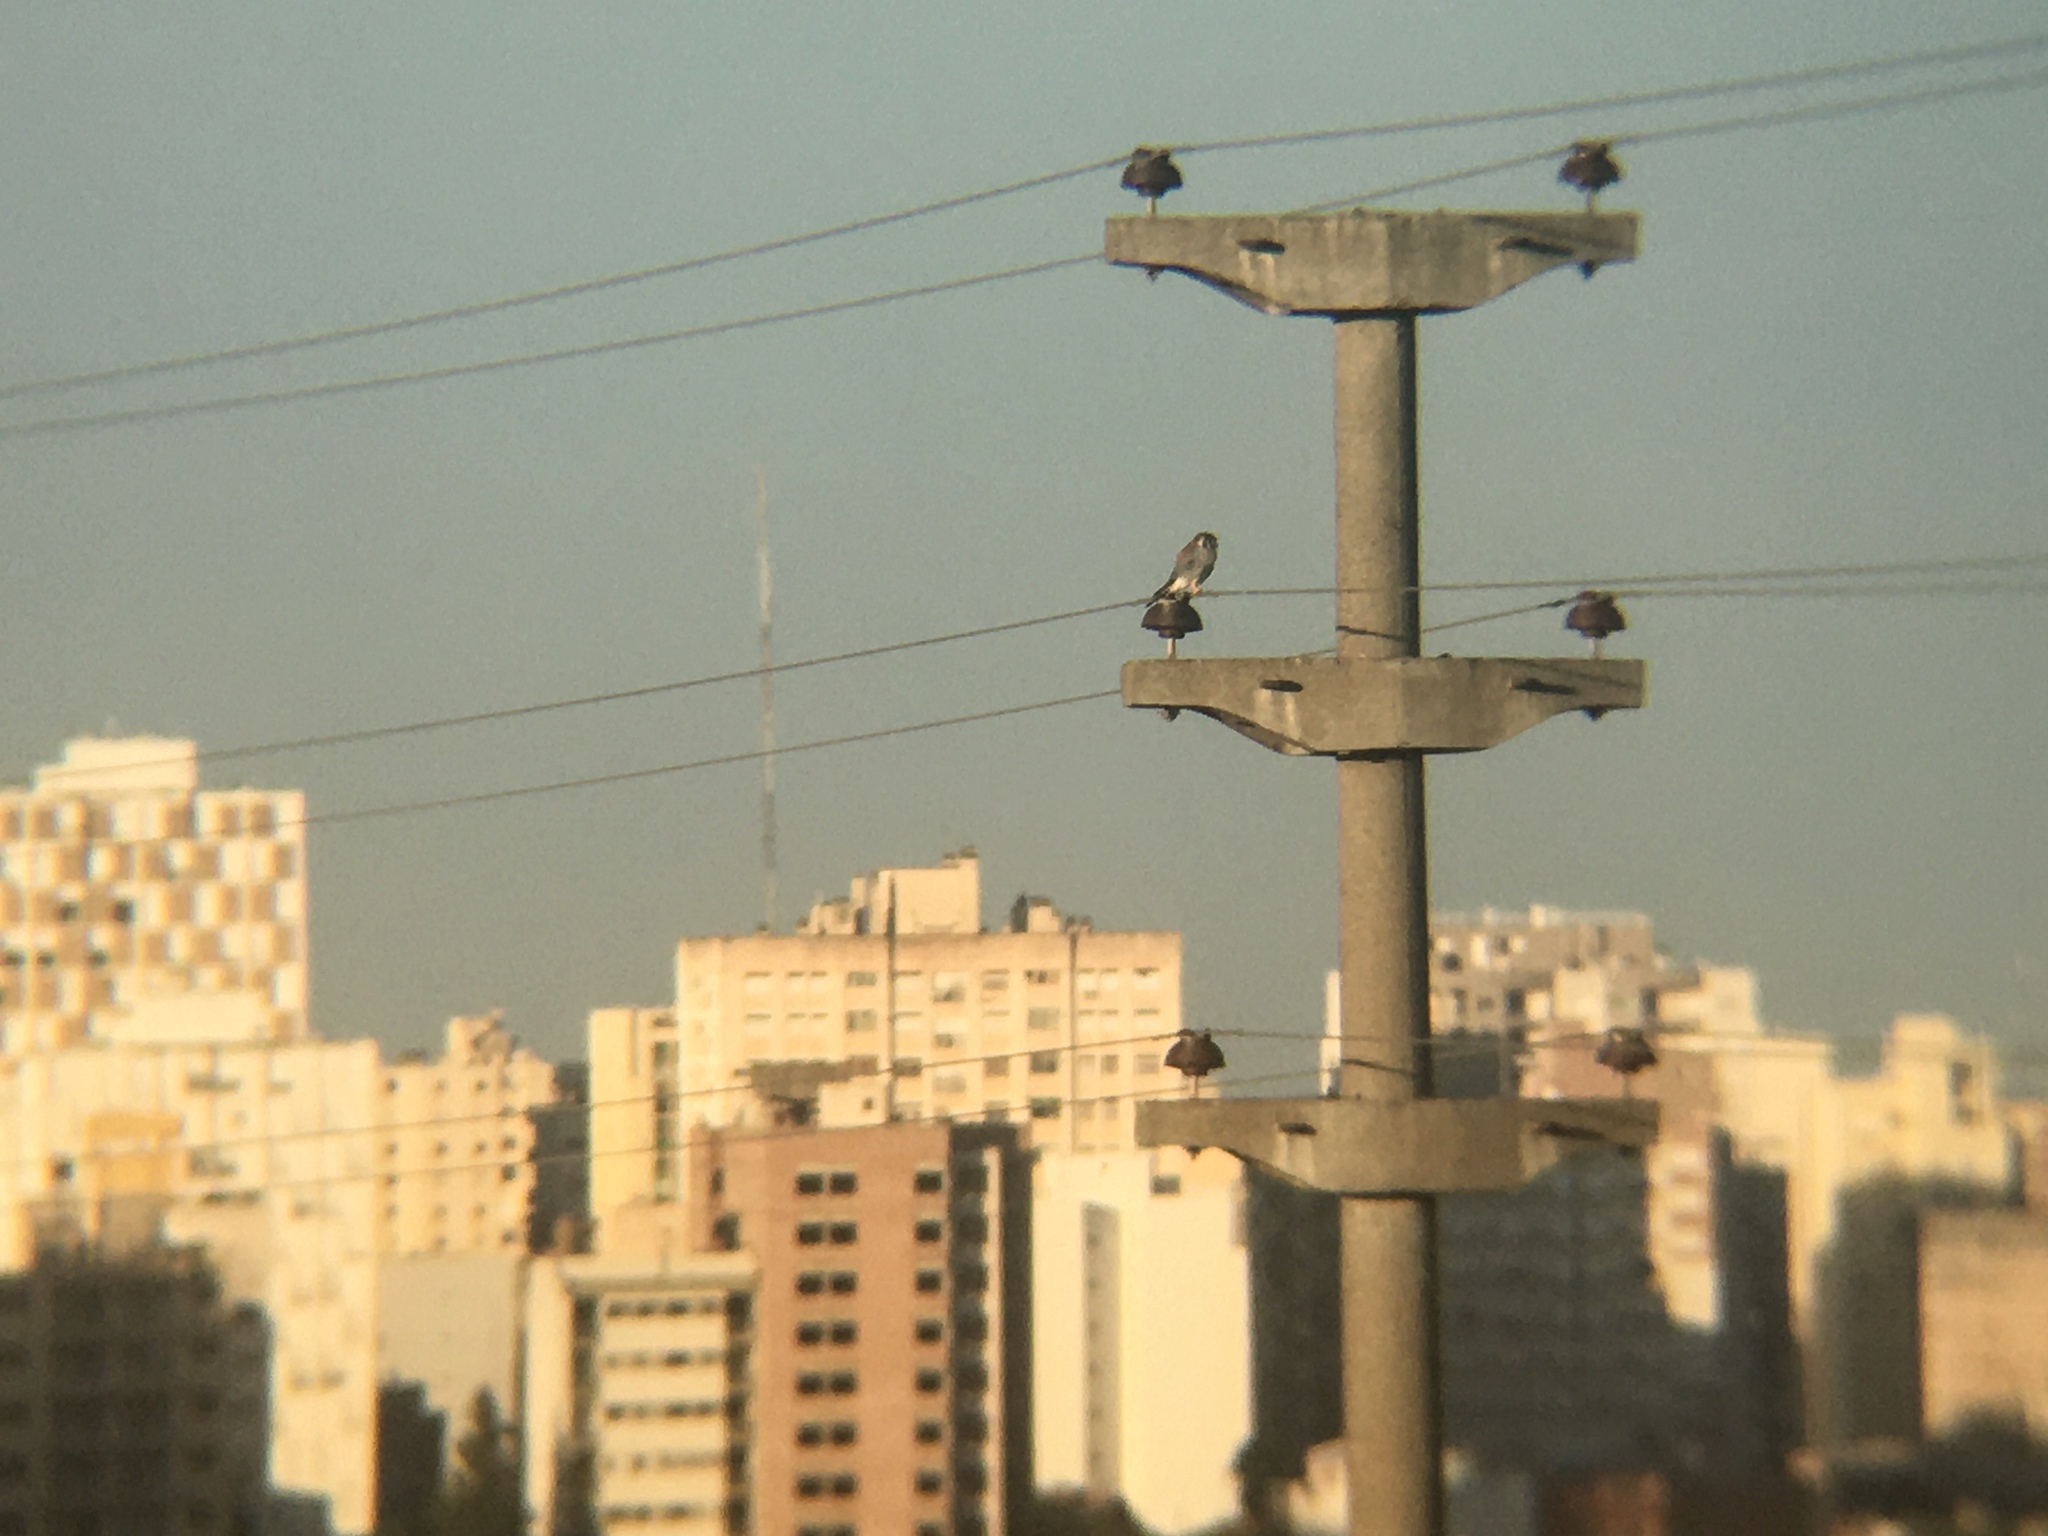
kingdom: Animalia
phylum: Chordata
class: Aves
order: Falconiformes
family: Falconidae
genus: Falco
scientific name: Falco sparverius
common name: American kestrel
